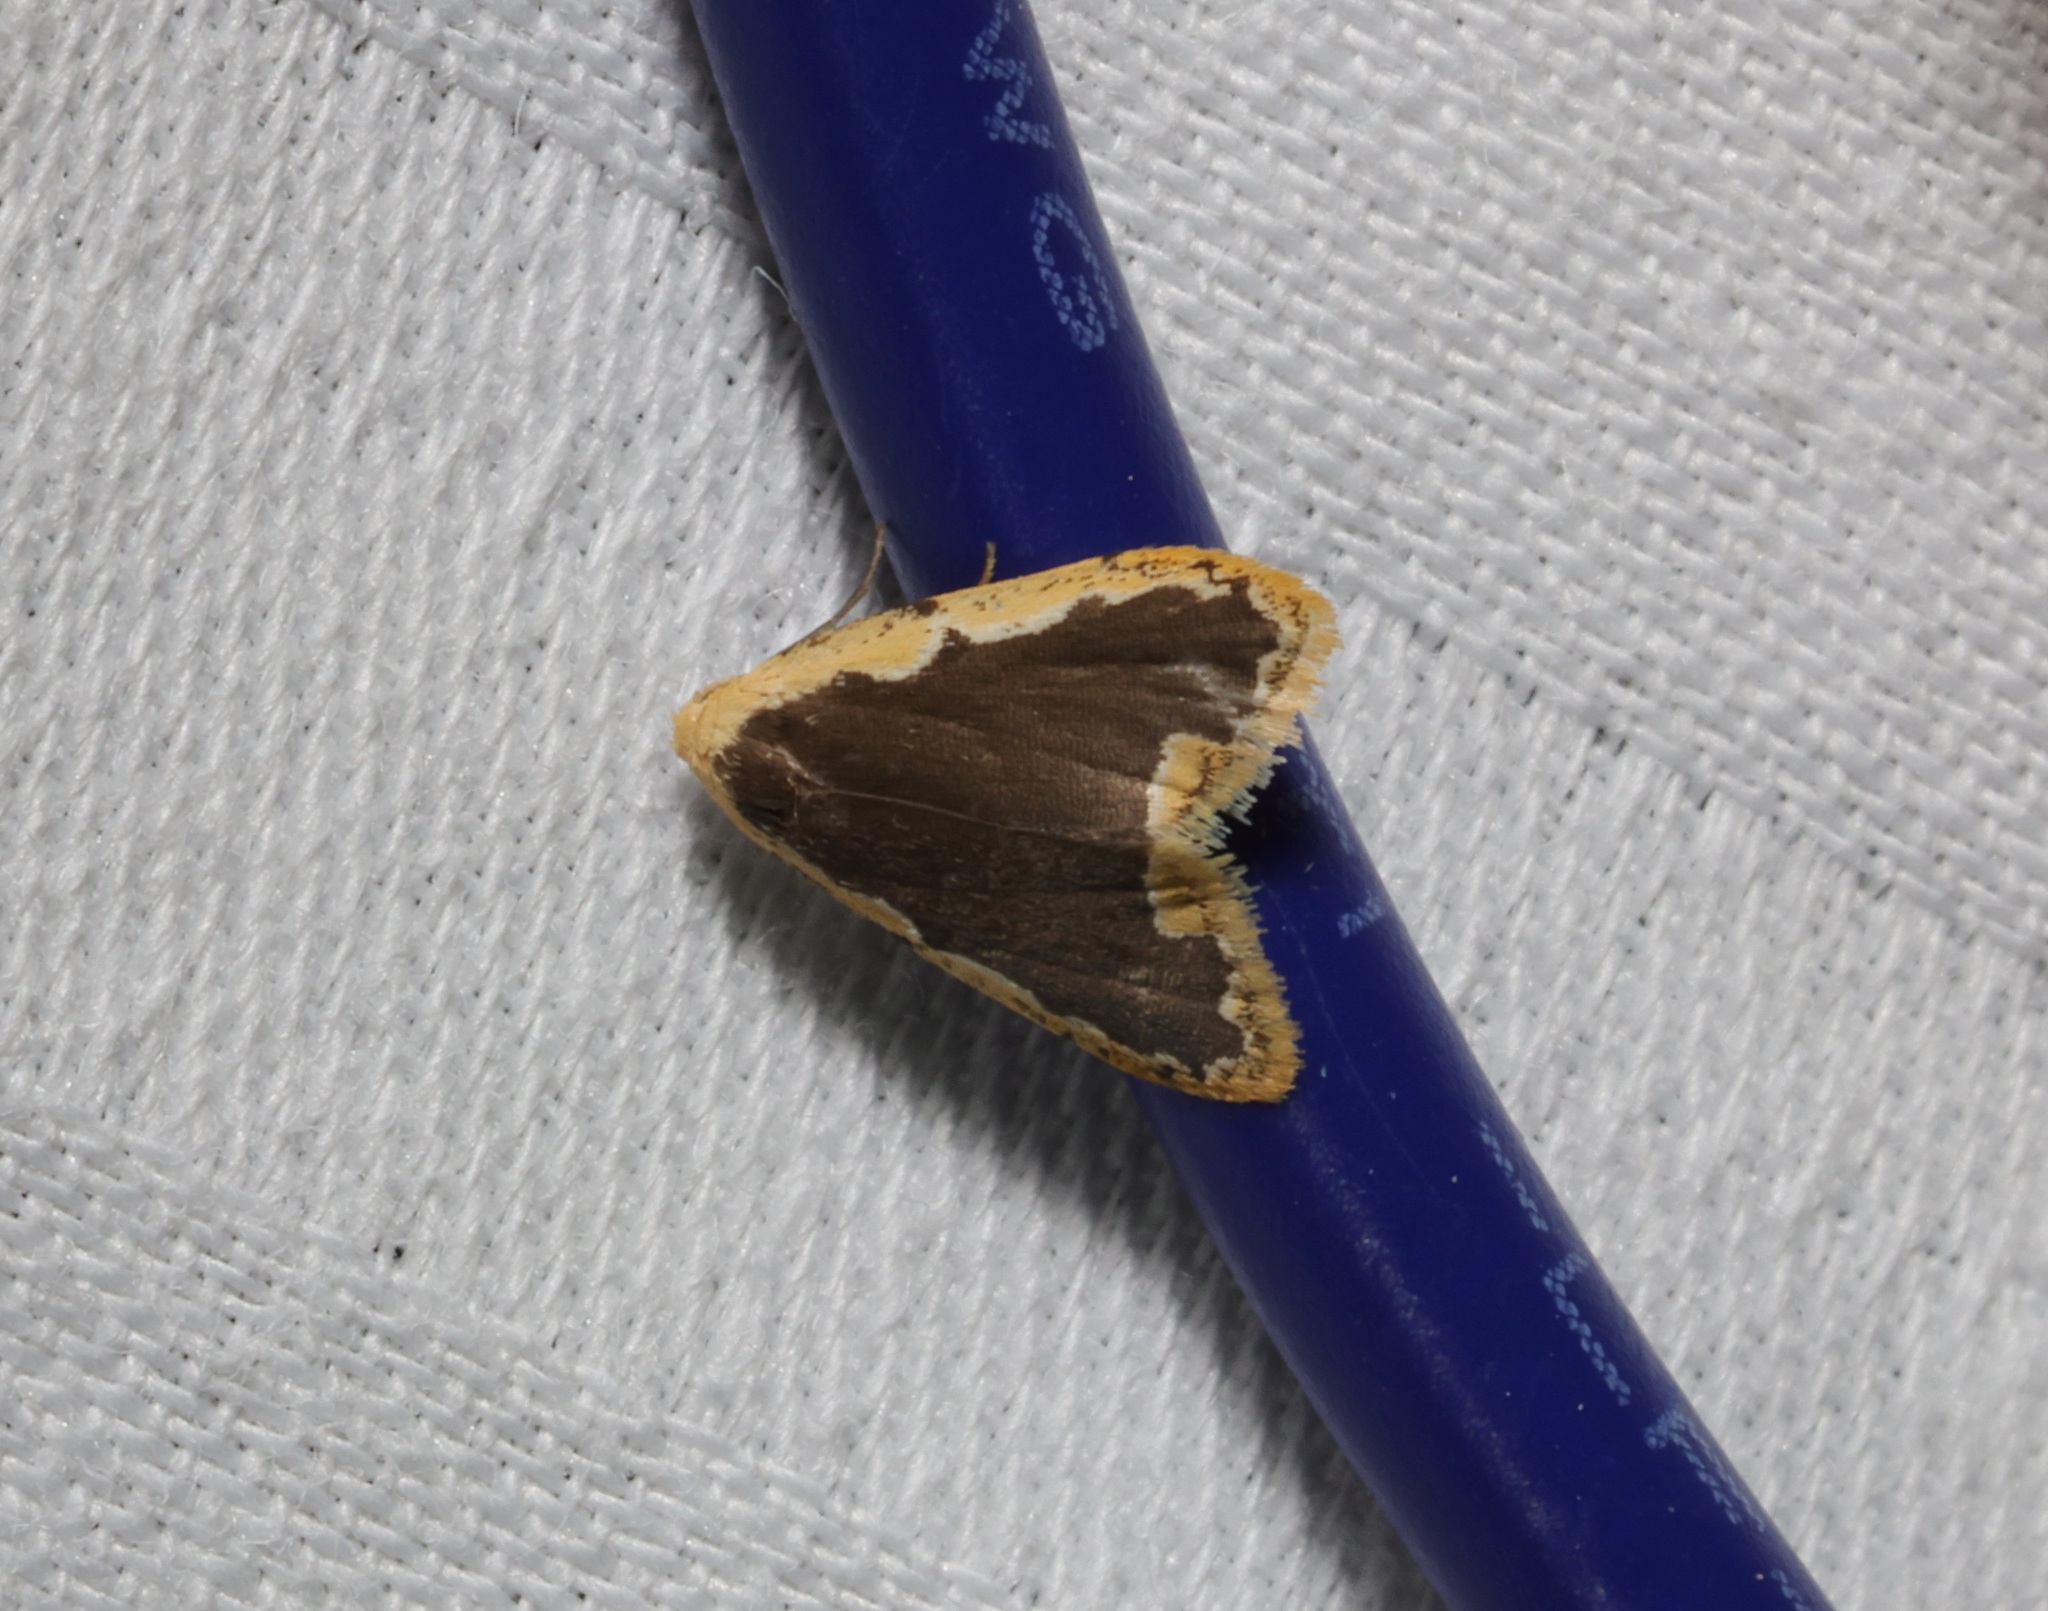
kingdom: Animalia
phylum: Arthropoda
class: Insecta
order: Lepidoptera
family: Erebidae
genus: Diduga
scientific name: Diduga flavicostata
